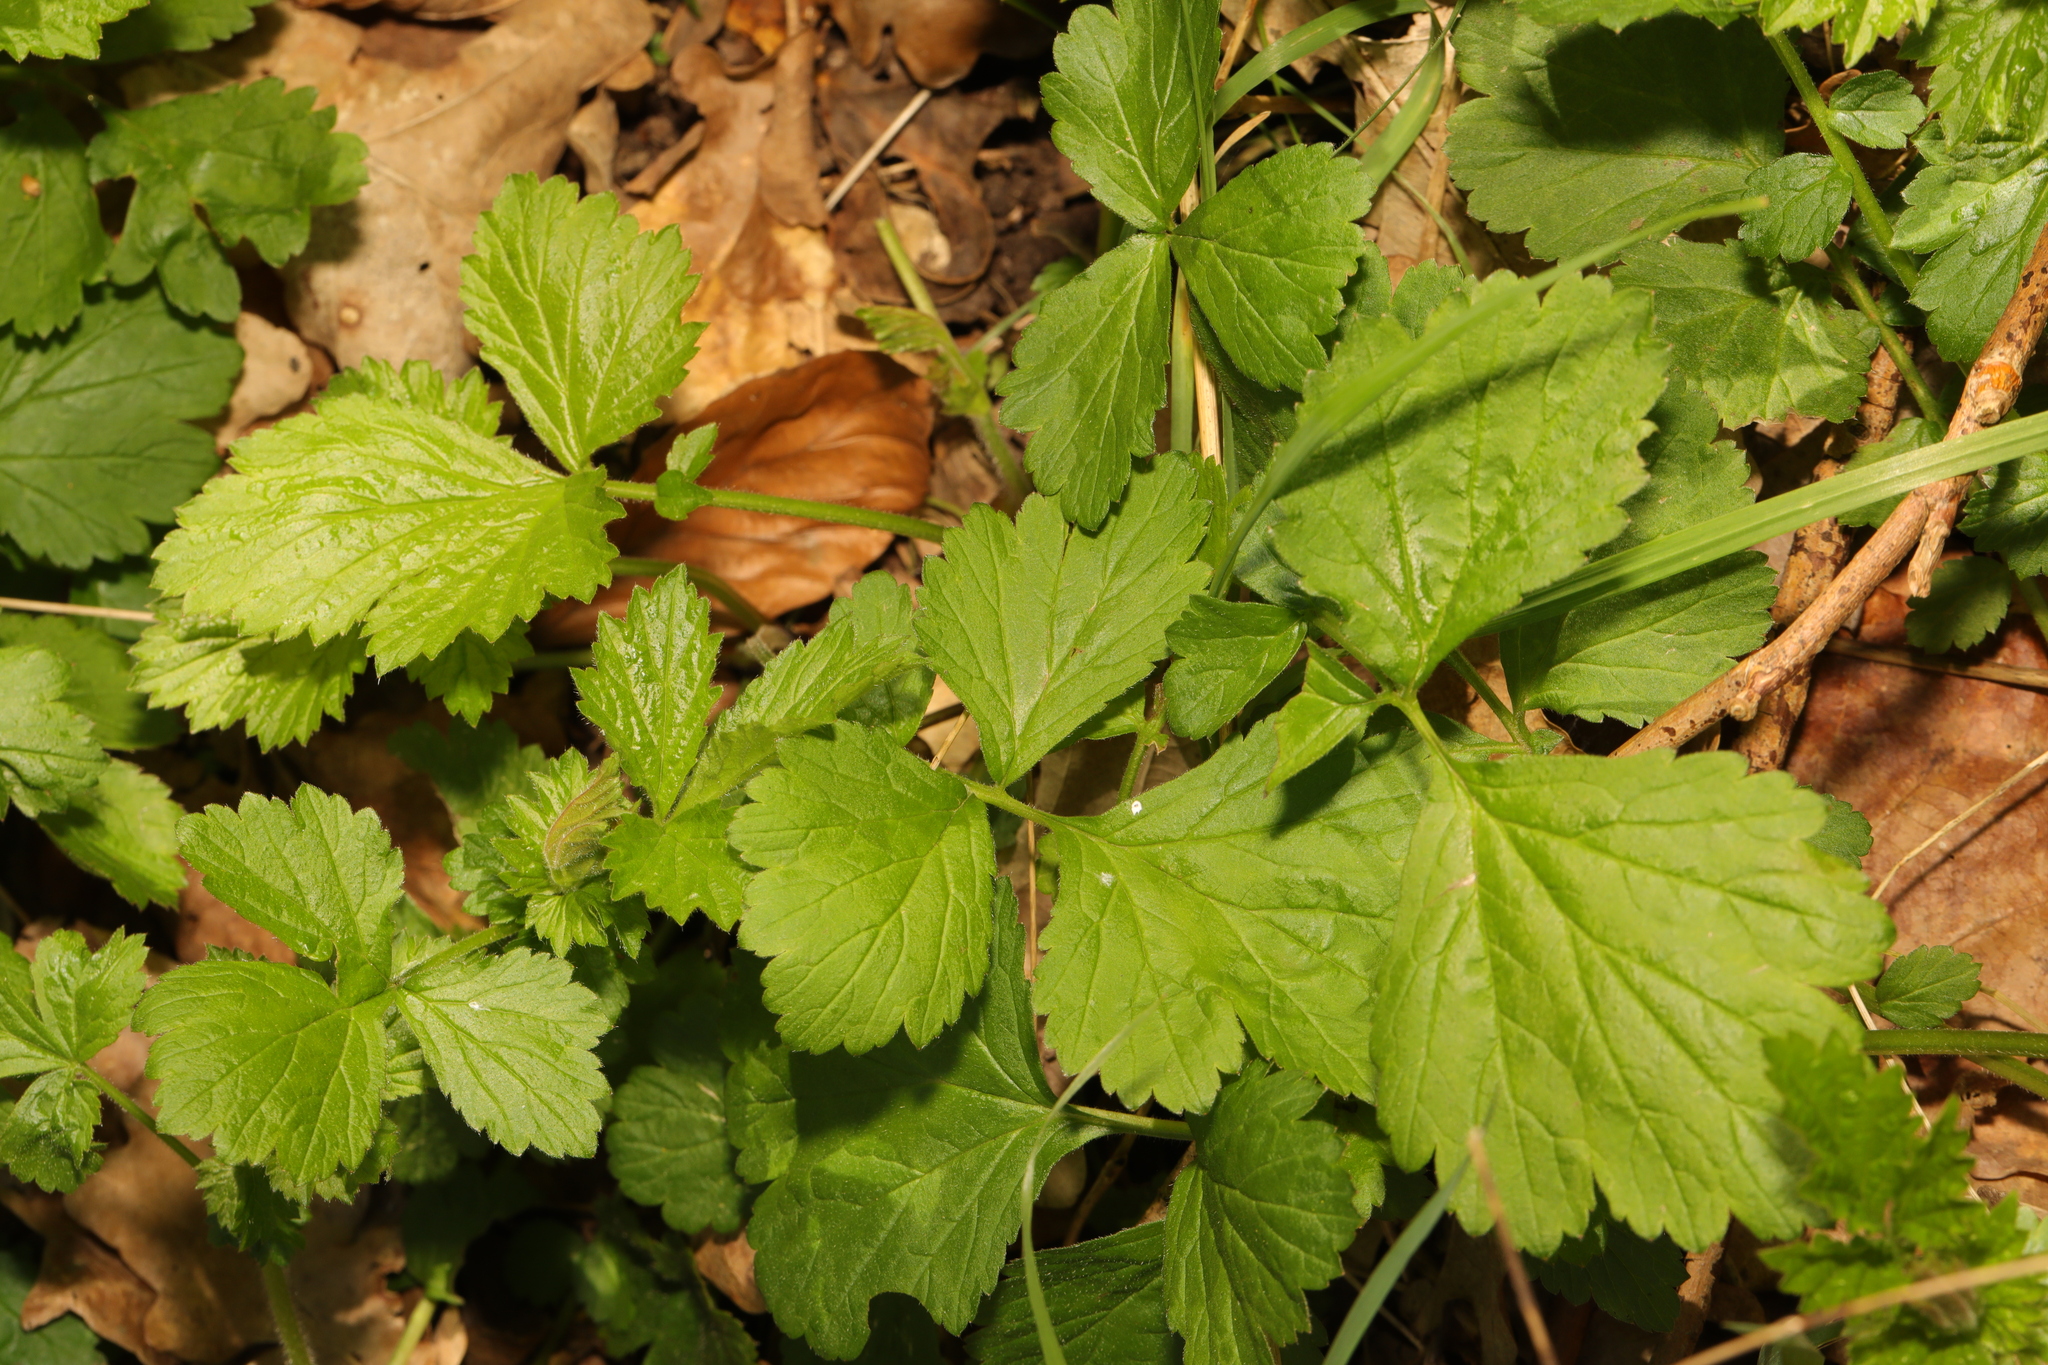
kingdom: Plantae
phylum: Tracheophyta
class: Magnoliopsida
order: Rosales
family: Rosaceae
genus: Geum
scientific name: Geum urbanum
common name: Wood avens
